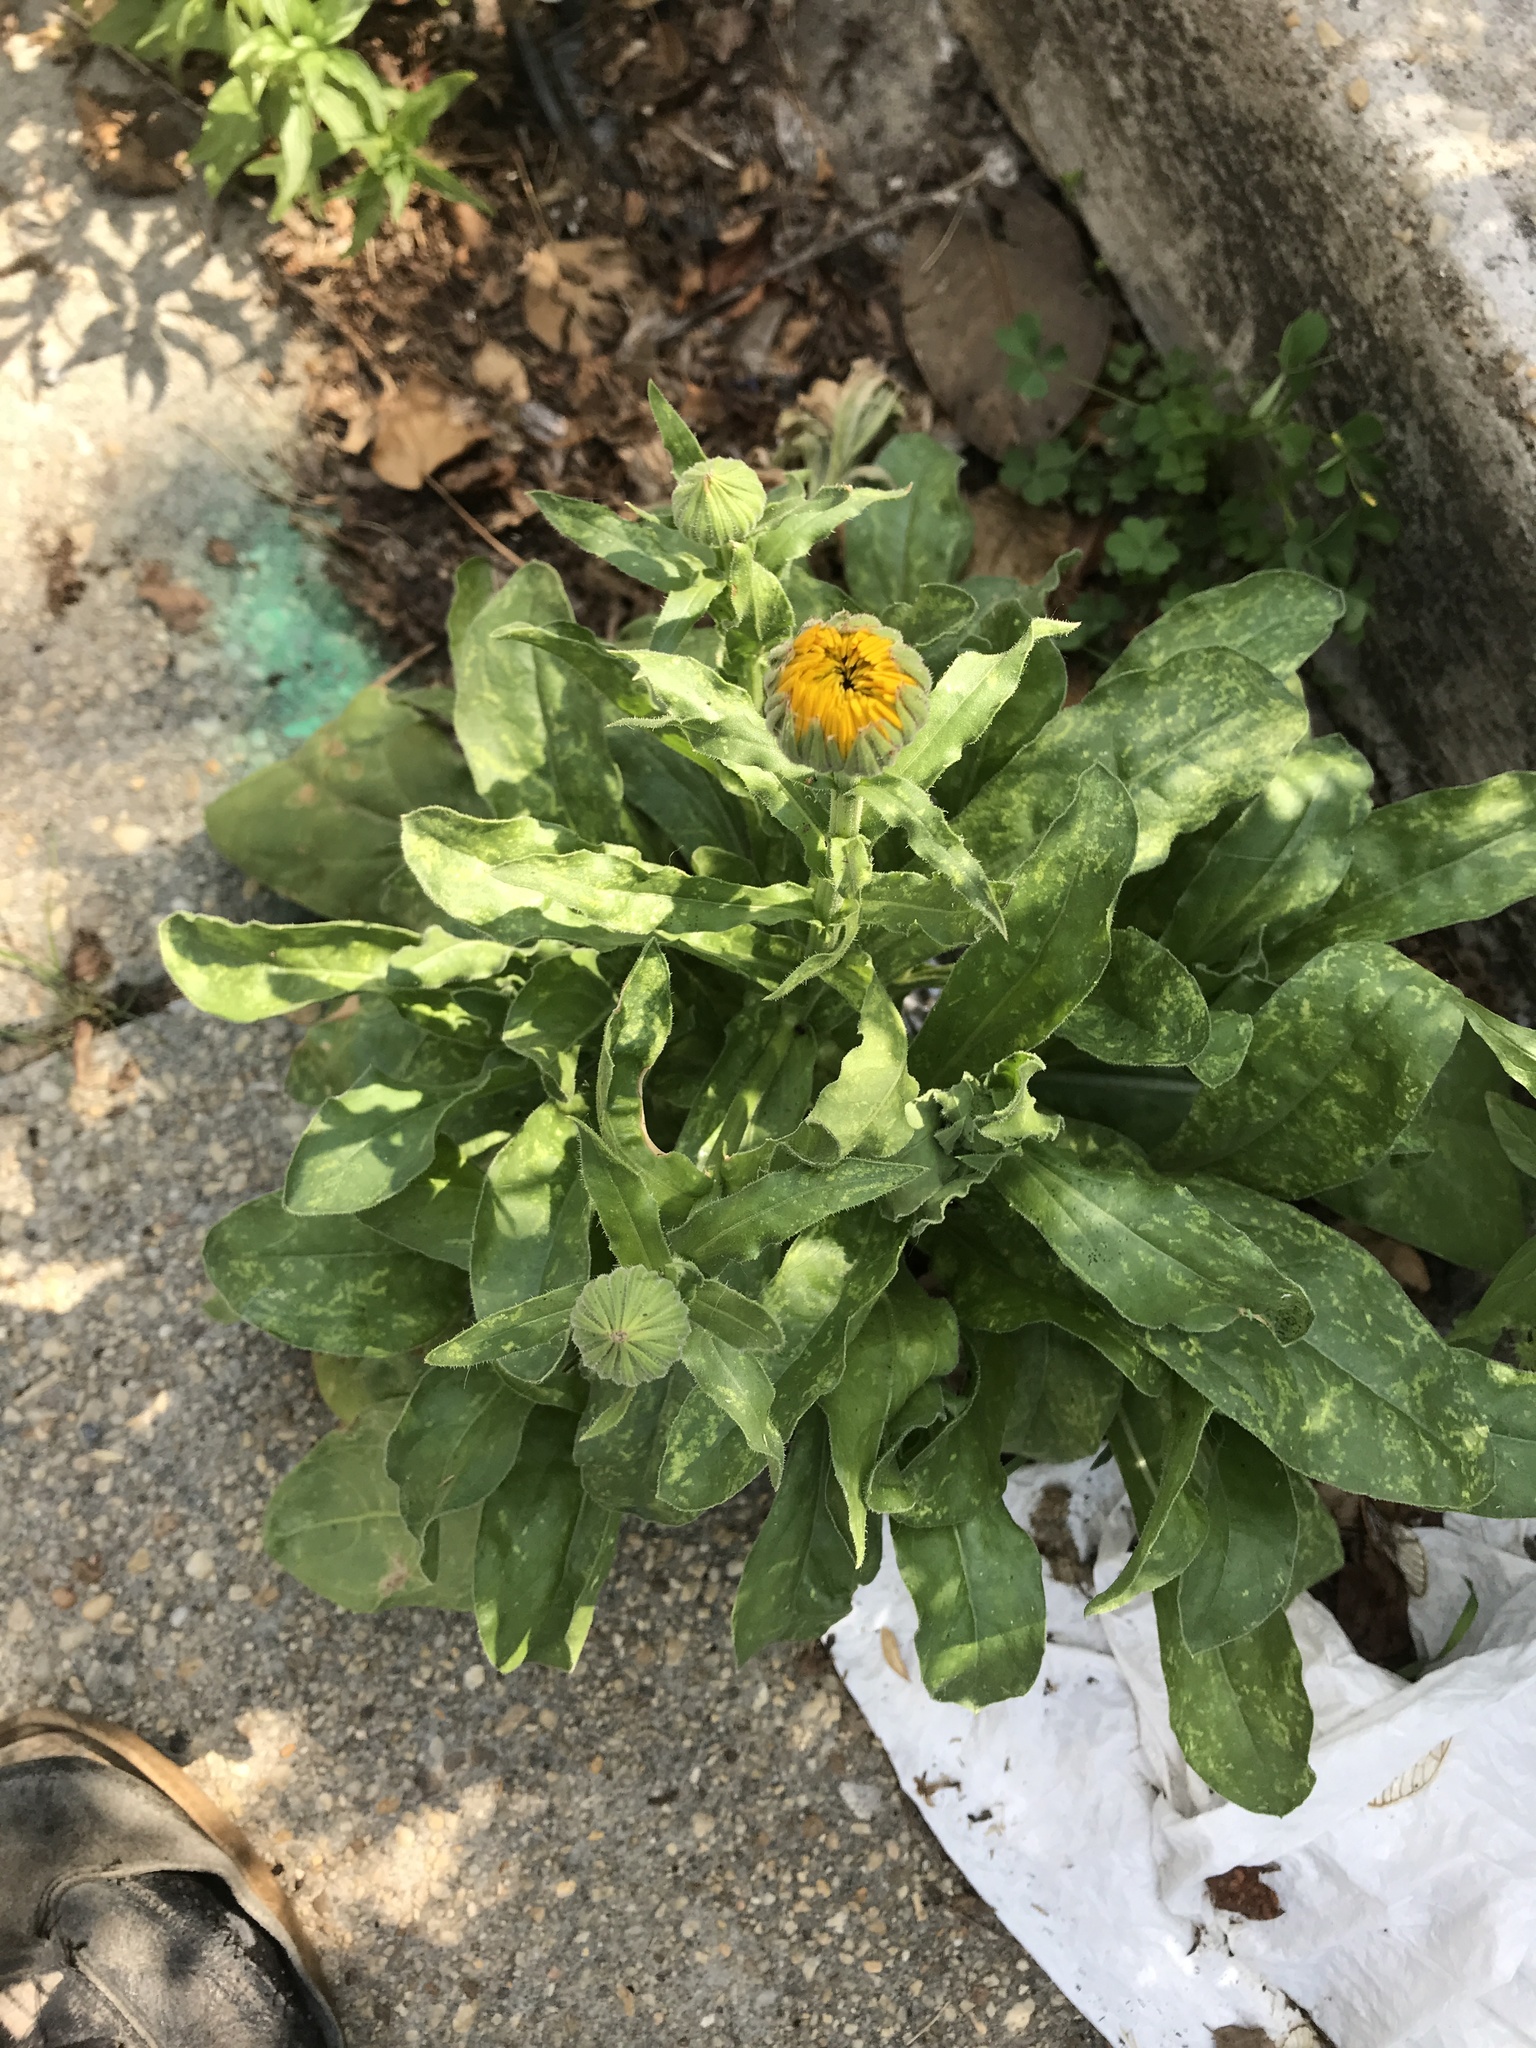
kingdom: Plantae
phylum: Tracheophyta
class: Magnoliopsida
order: Asterales
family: Asteraceae
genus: Calendula
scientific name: Calendula officinalis
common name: Pot marigold
